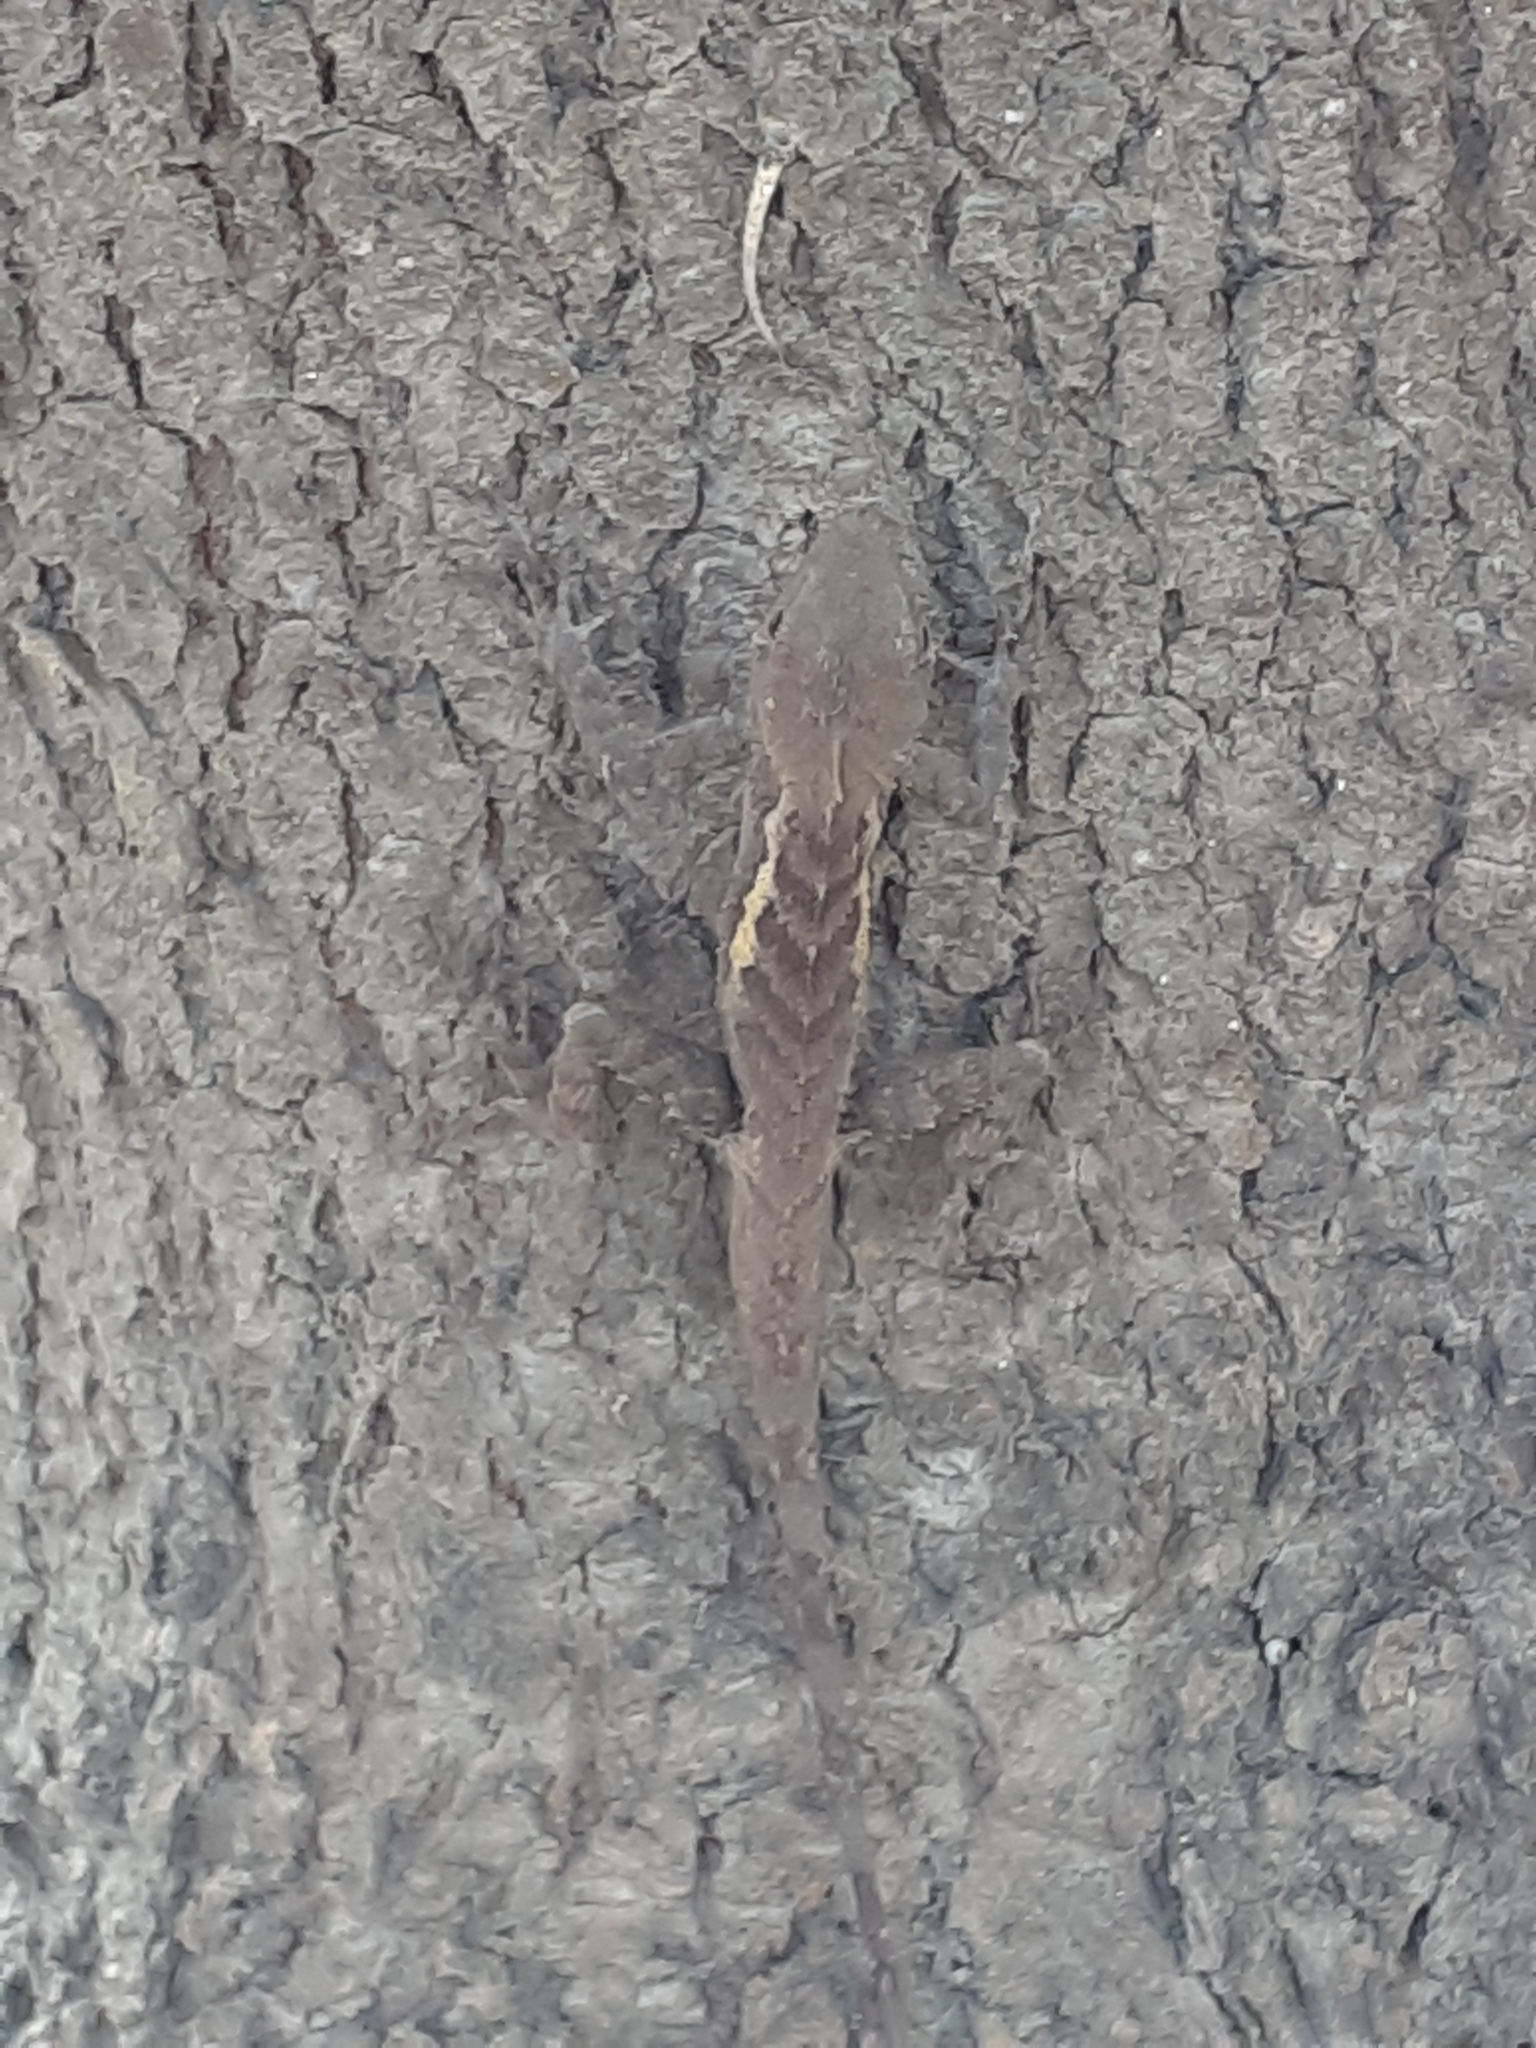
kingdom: Animalia
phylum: Chordata
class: Squamata
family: Agamidae
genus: Diploderma
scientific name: Diploderma swinhonis
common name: Taiwan japalure
